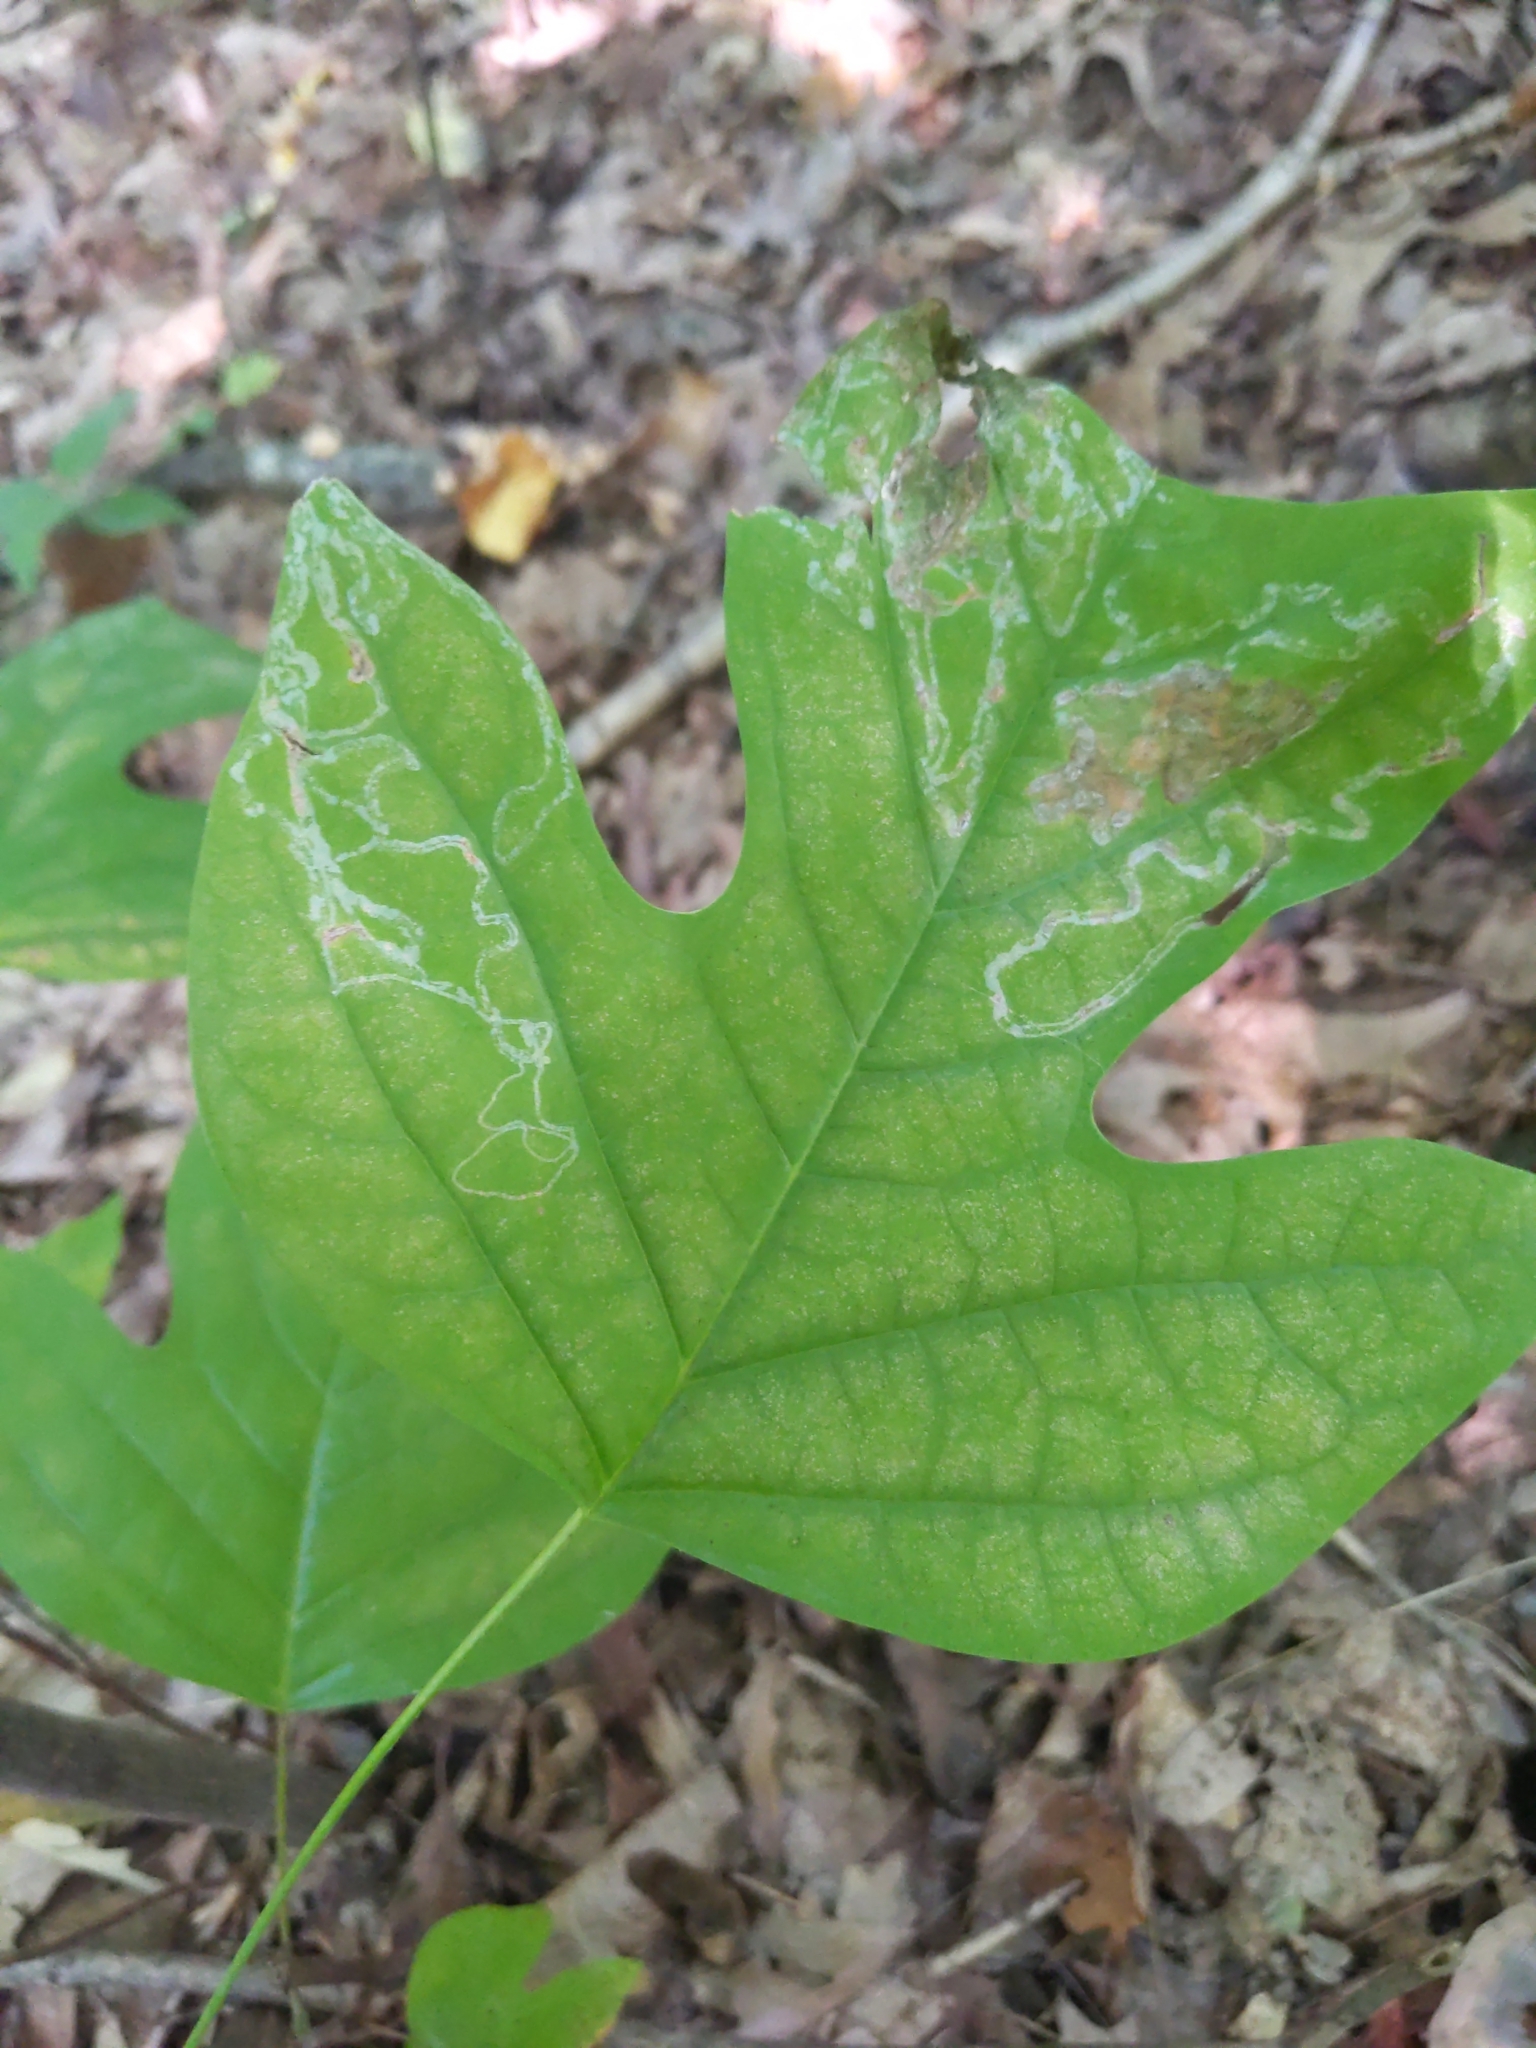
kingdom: Animalia
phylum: Arthropoda
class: Insecta
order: Lepidoptera
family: Gracillariidae
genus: Phyllocnistis
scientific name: Phyllocnistis liriodendronella
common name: Tulip tree leaf miner
